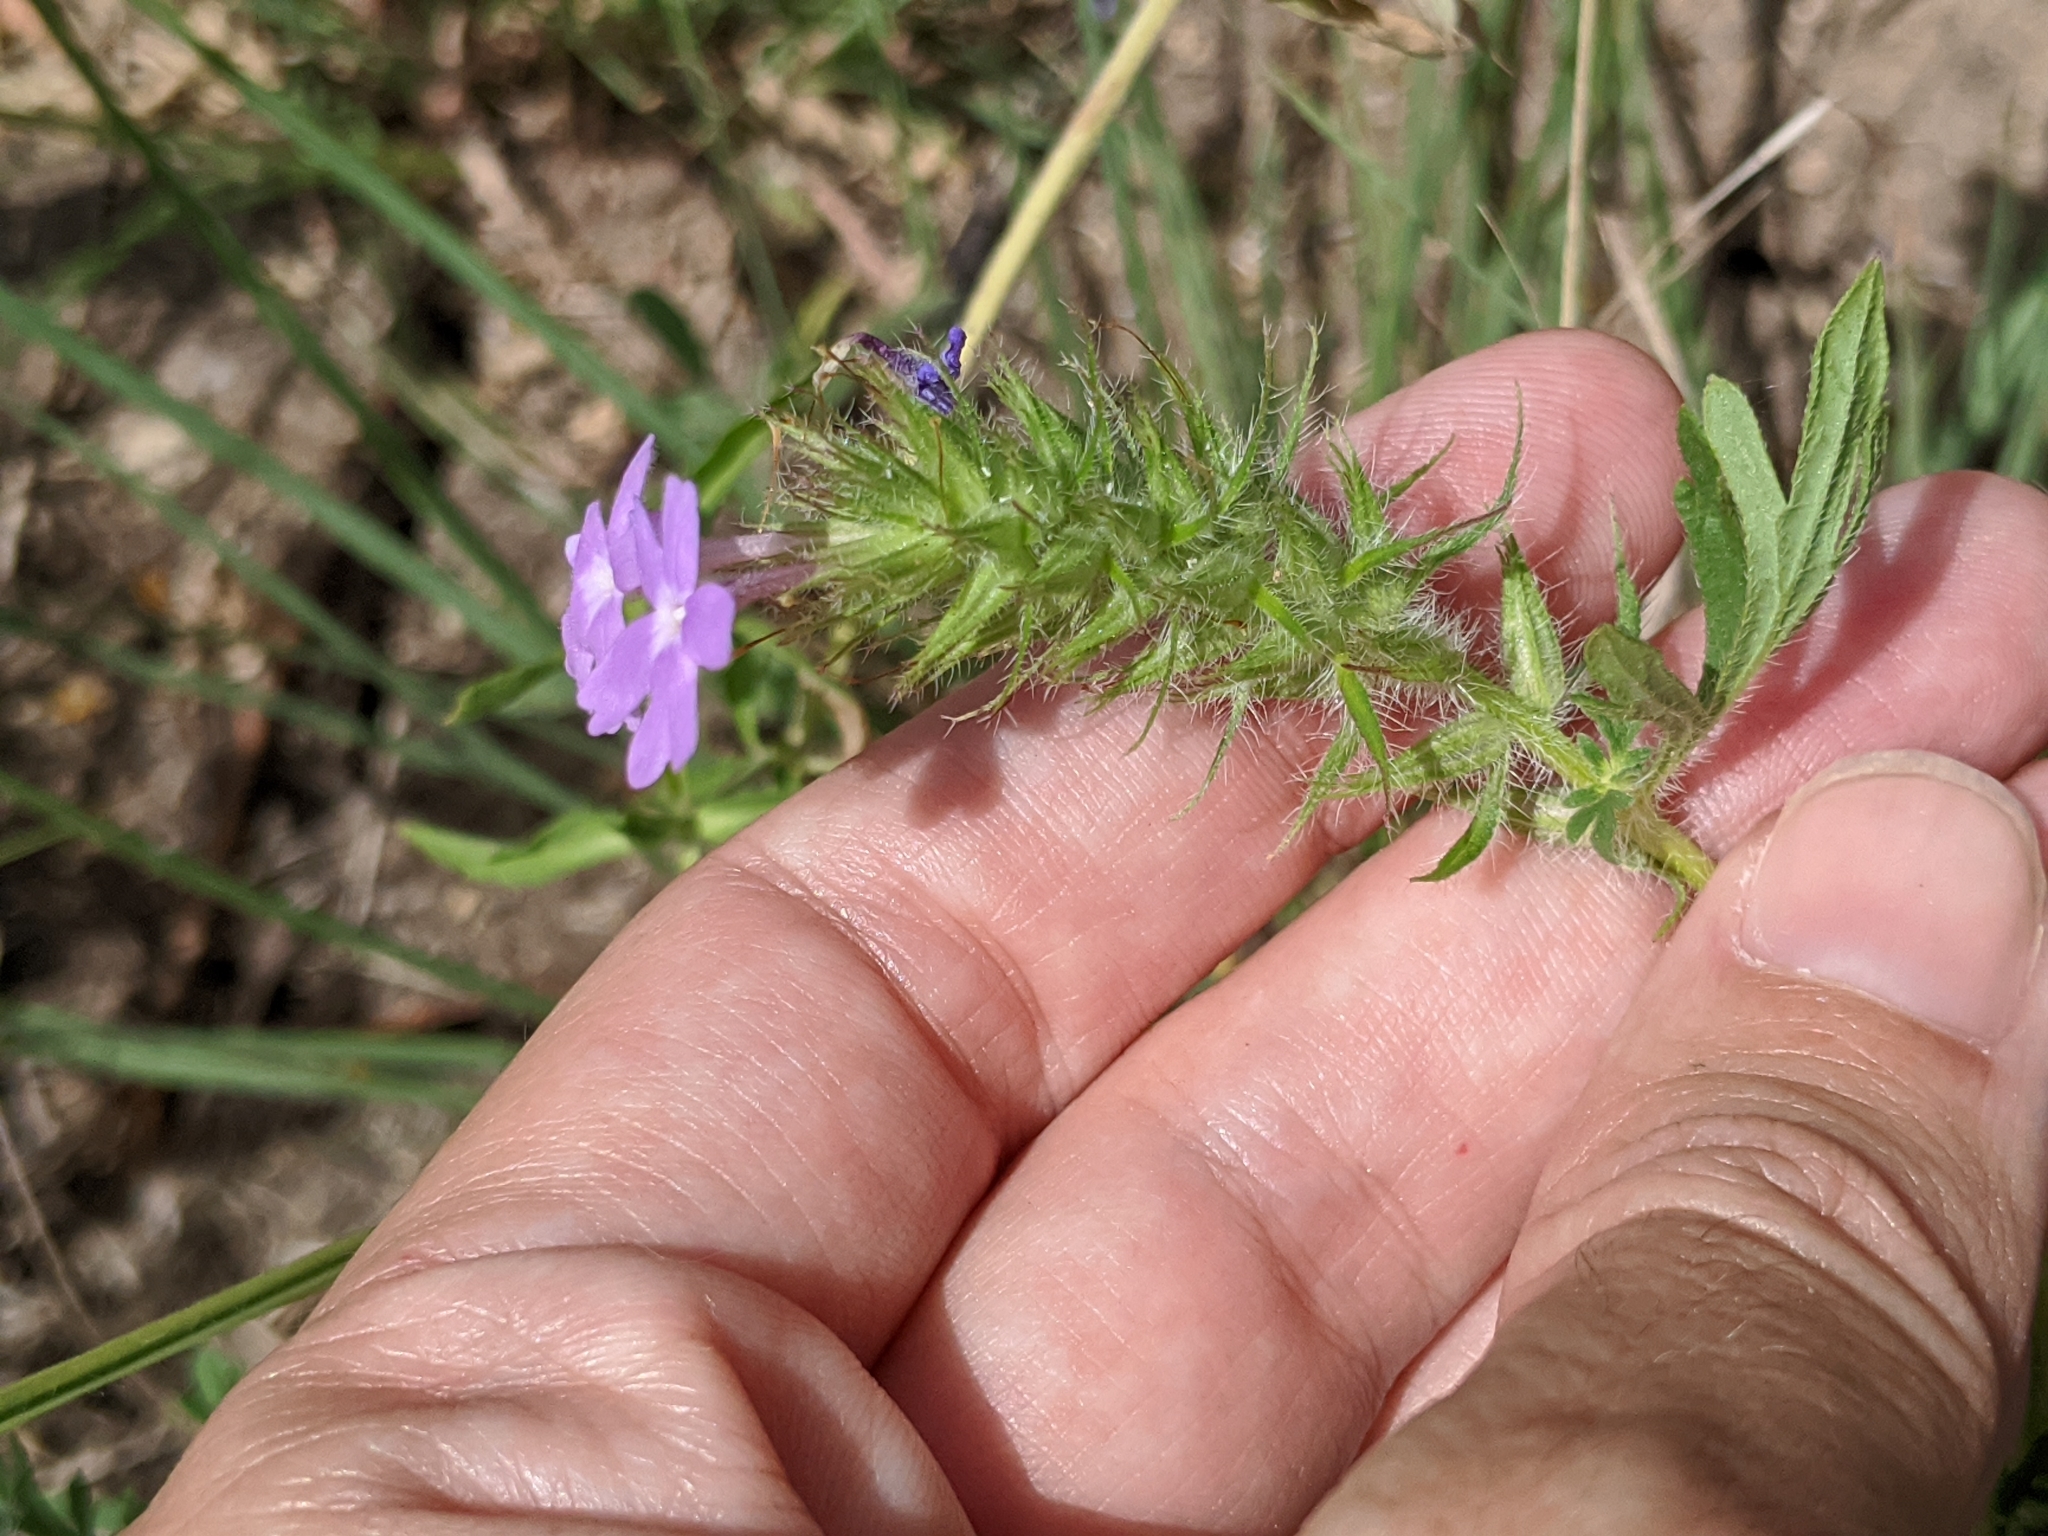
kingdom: Plantae
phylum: Tracheophyta
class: Magnoliopsida
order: Lamiales
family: Verbenaceae
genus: Verbena
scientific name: Verbena bipinnatifida
